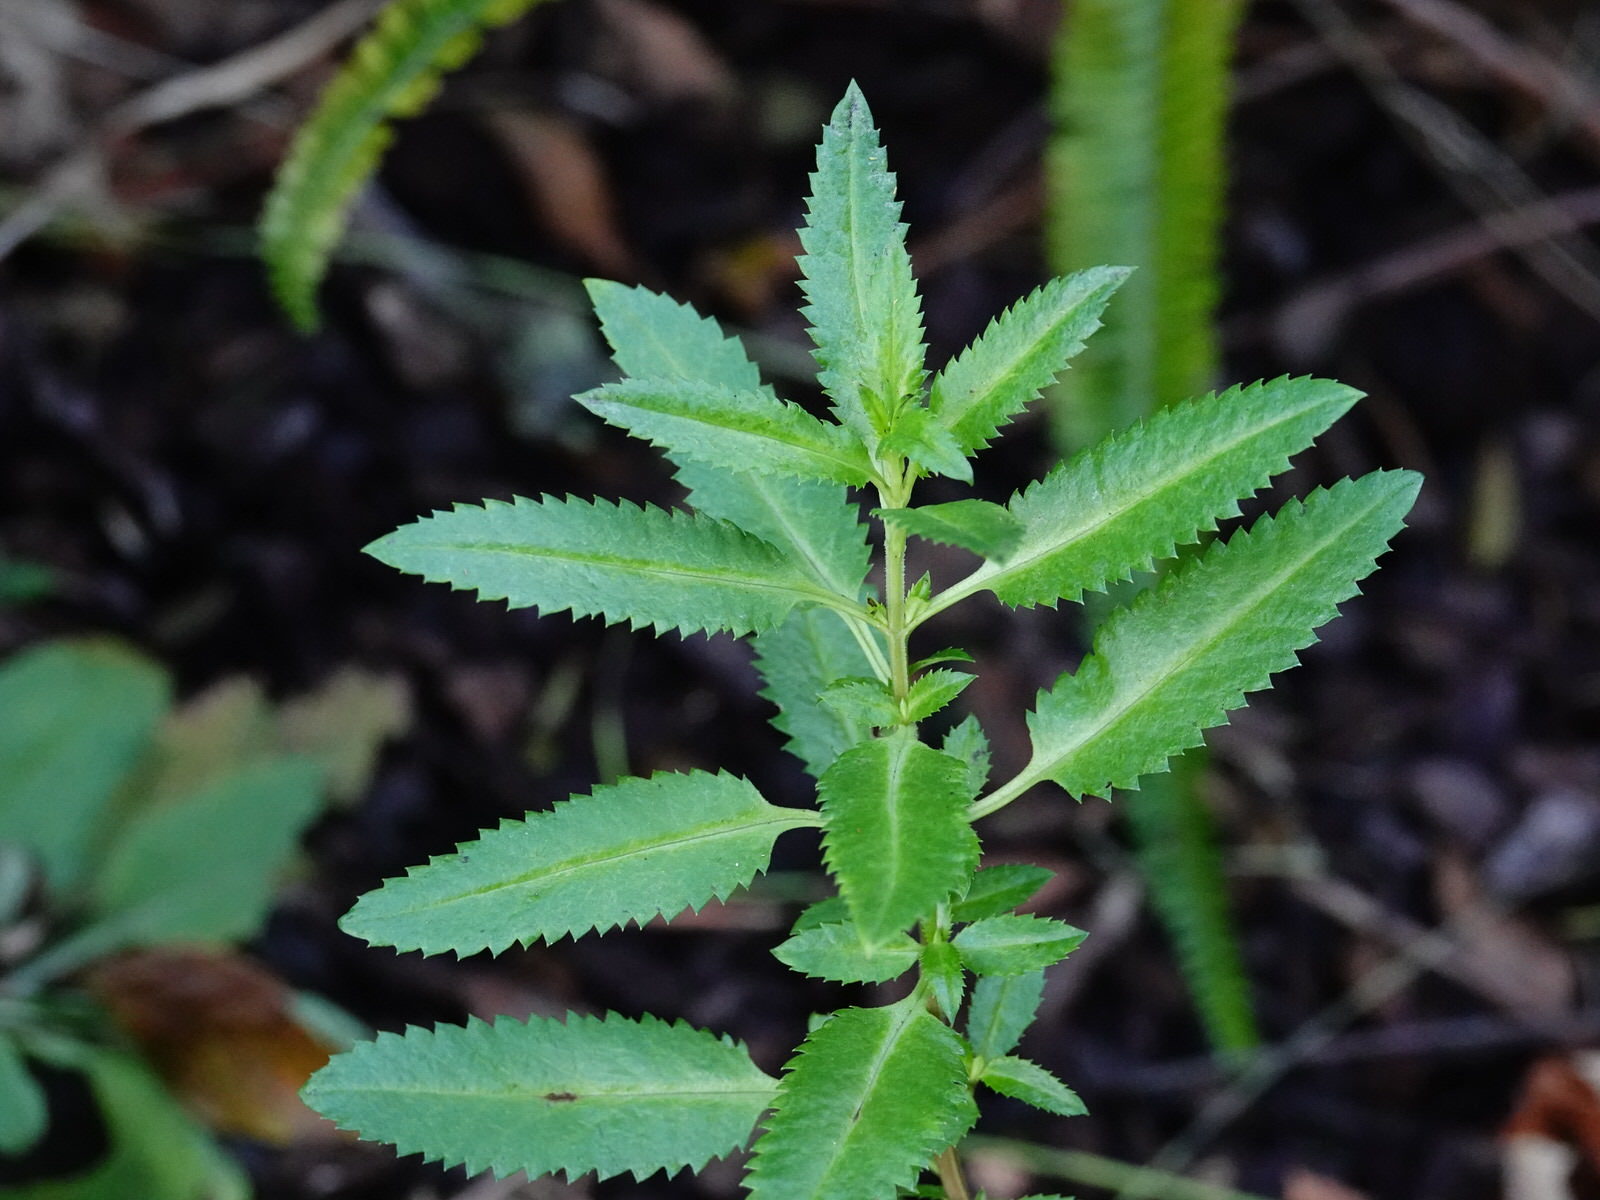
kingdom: Plantae
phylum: Tracheophyta
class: Magnoliopsida
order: Saxifragales
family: Haloragaceae
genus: Haloragis
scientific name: Haloragis erecta
